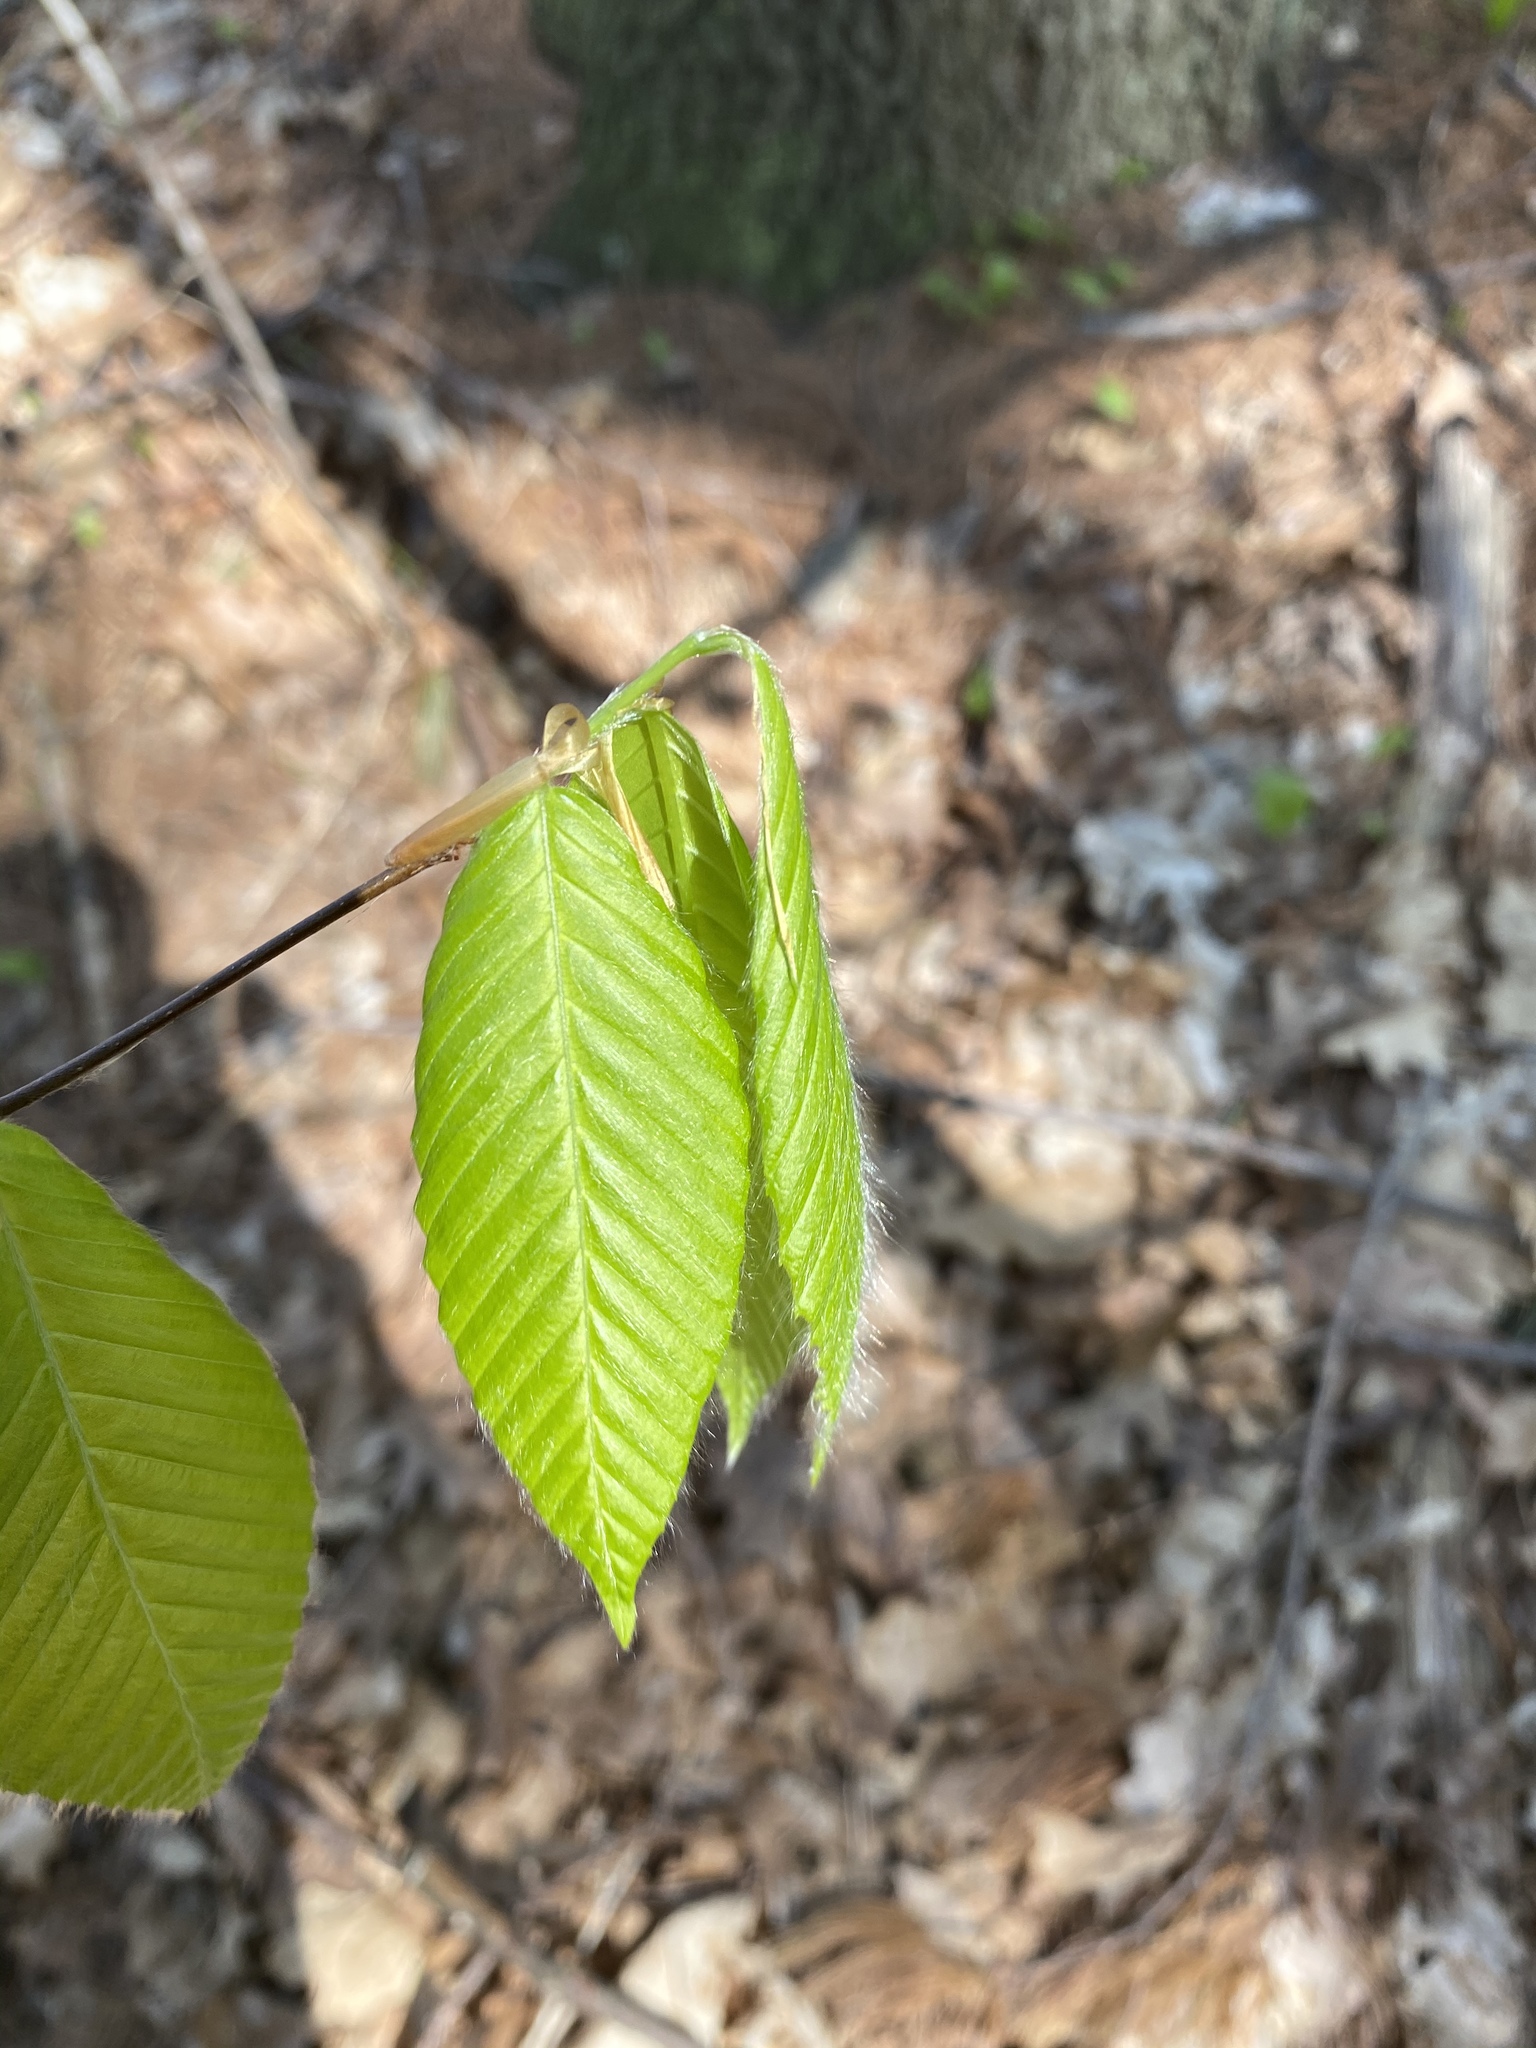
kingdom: Plantae
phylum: Tracheophyta
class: Magnoliopsida
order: Fagales
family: Fagaceae
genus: Fagus
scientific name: Fagus grandifolia
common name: American beech
